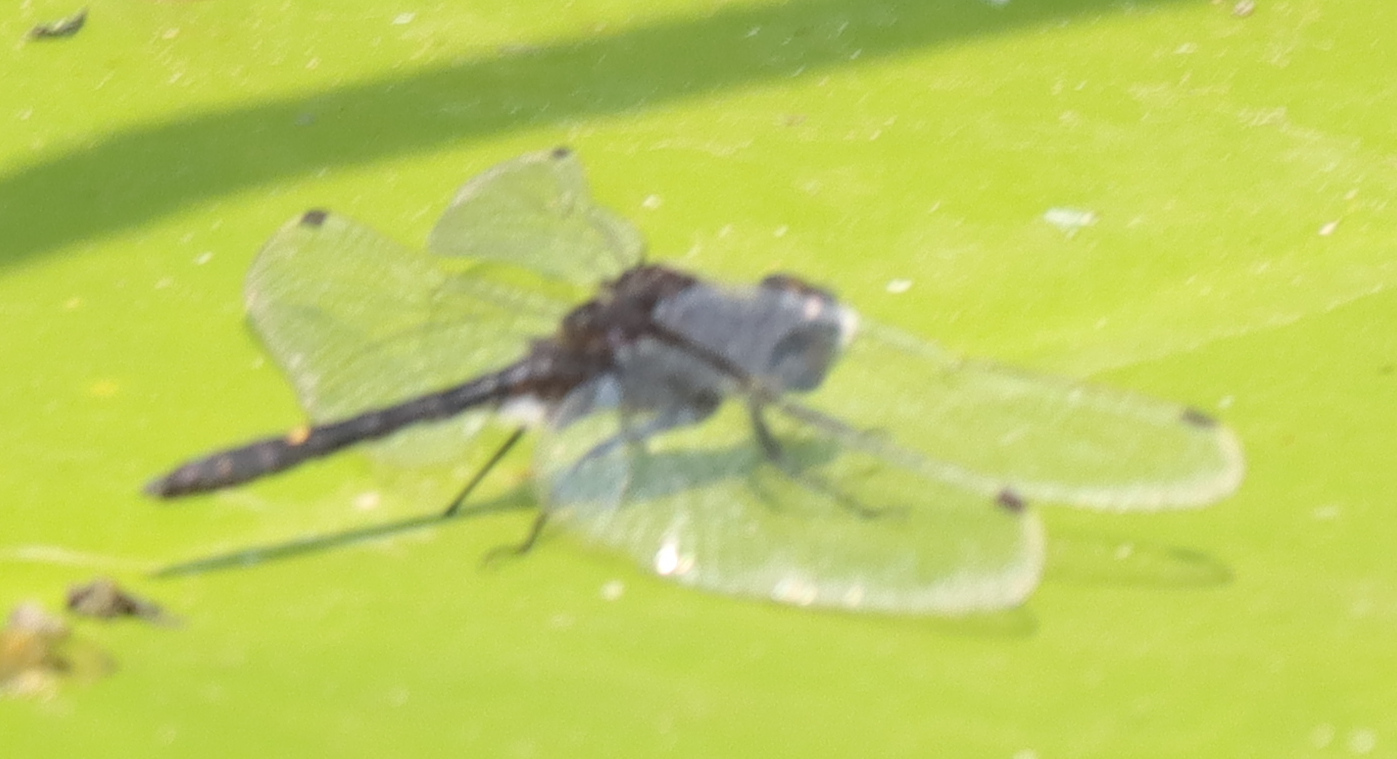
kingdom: Animalia
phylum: Arthropoda
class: Insecta
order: Odonata
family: Libellulidae
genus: Leucorrhinia
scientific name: Leucorrhinia intacta
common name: Dot-tailed whiteface
